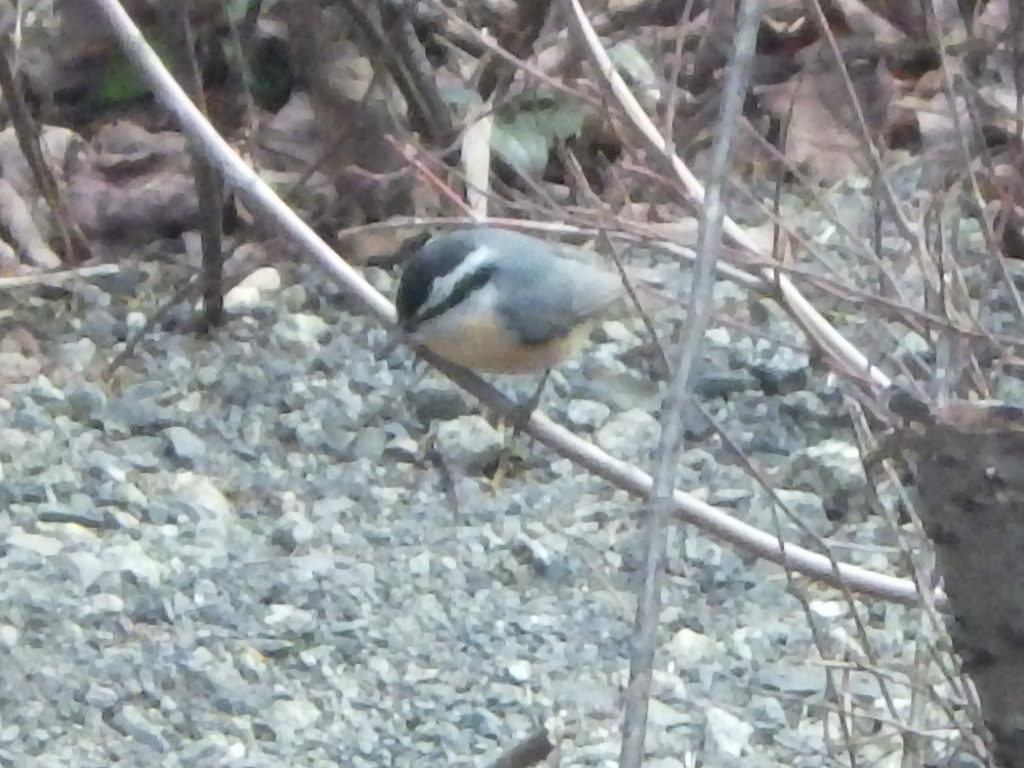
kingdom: Animalia
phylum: Chordata
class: Aves
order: Passeriformes
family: Sittidae
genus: Sitta
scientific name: Sitta canadensis
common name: Red-breasted nuthatch
